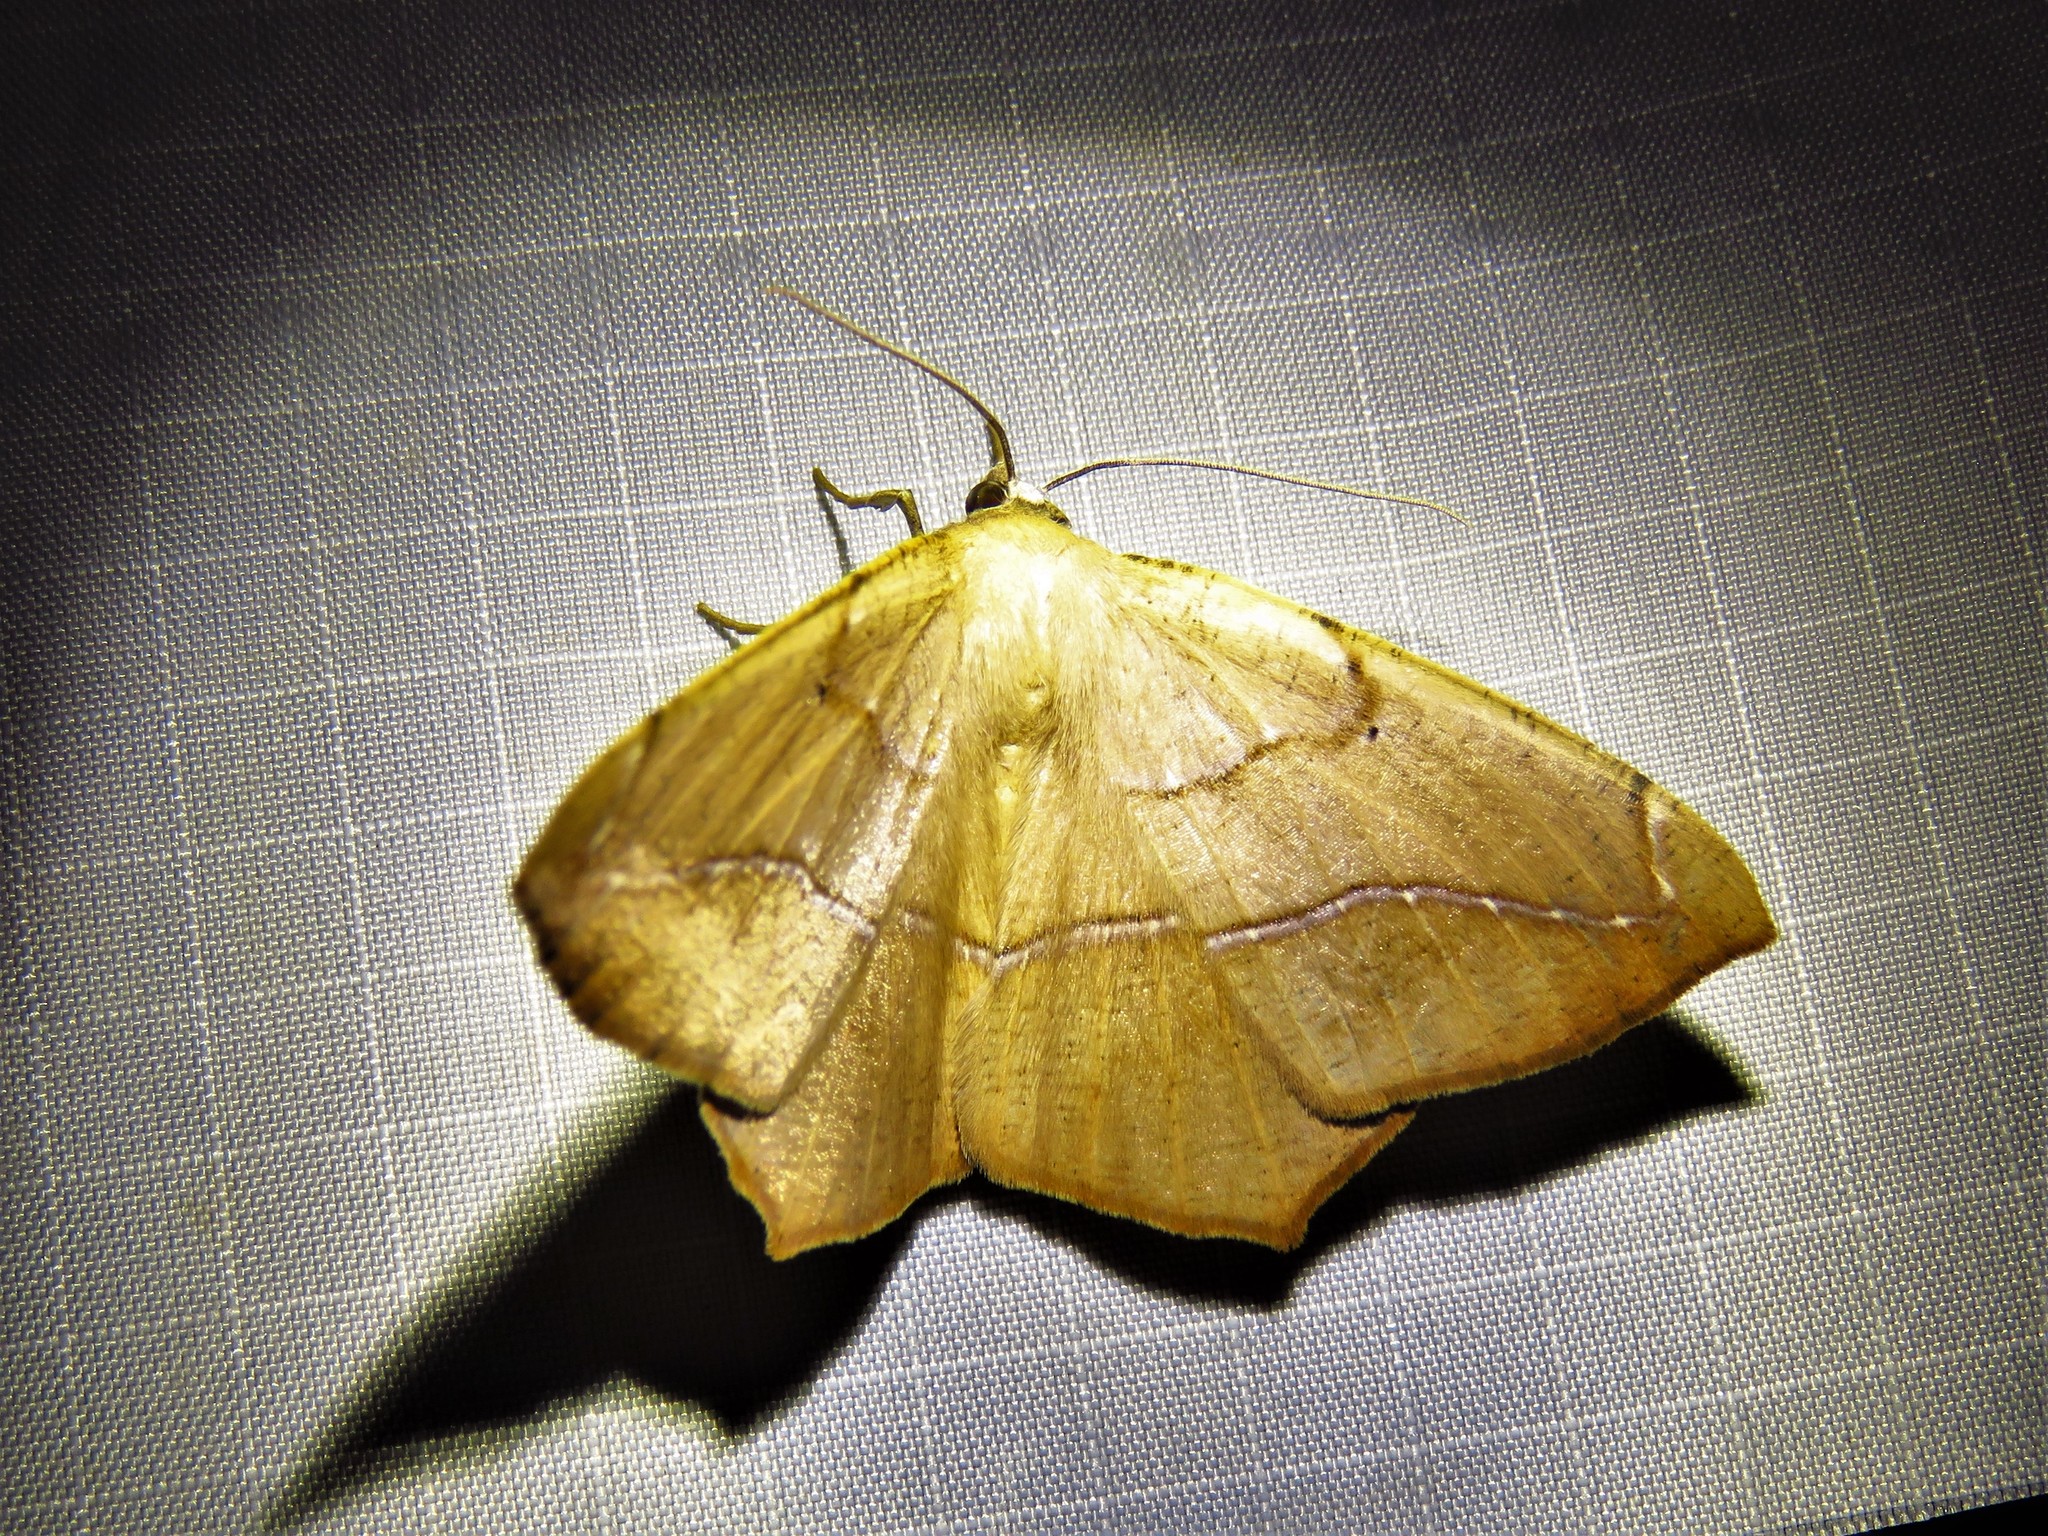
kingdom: Animalia
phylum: Arthropoda
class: Insecta
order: Lepidoptera
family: Geometridae
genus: Prochoerodes
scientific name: Prochoerodes lineola
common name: Large maple spanworm
